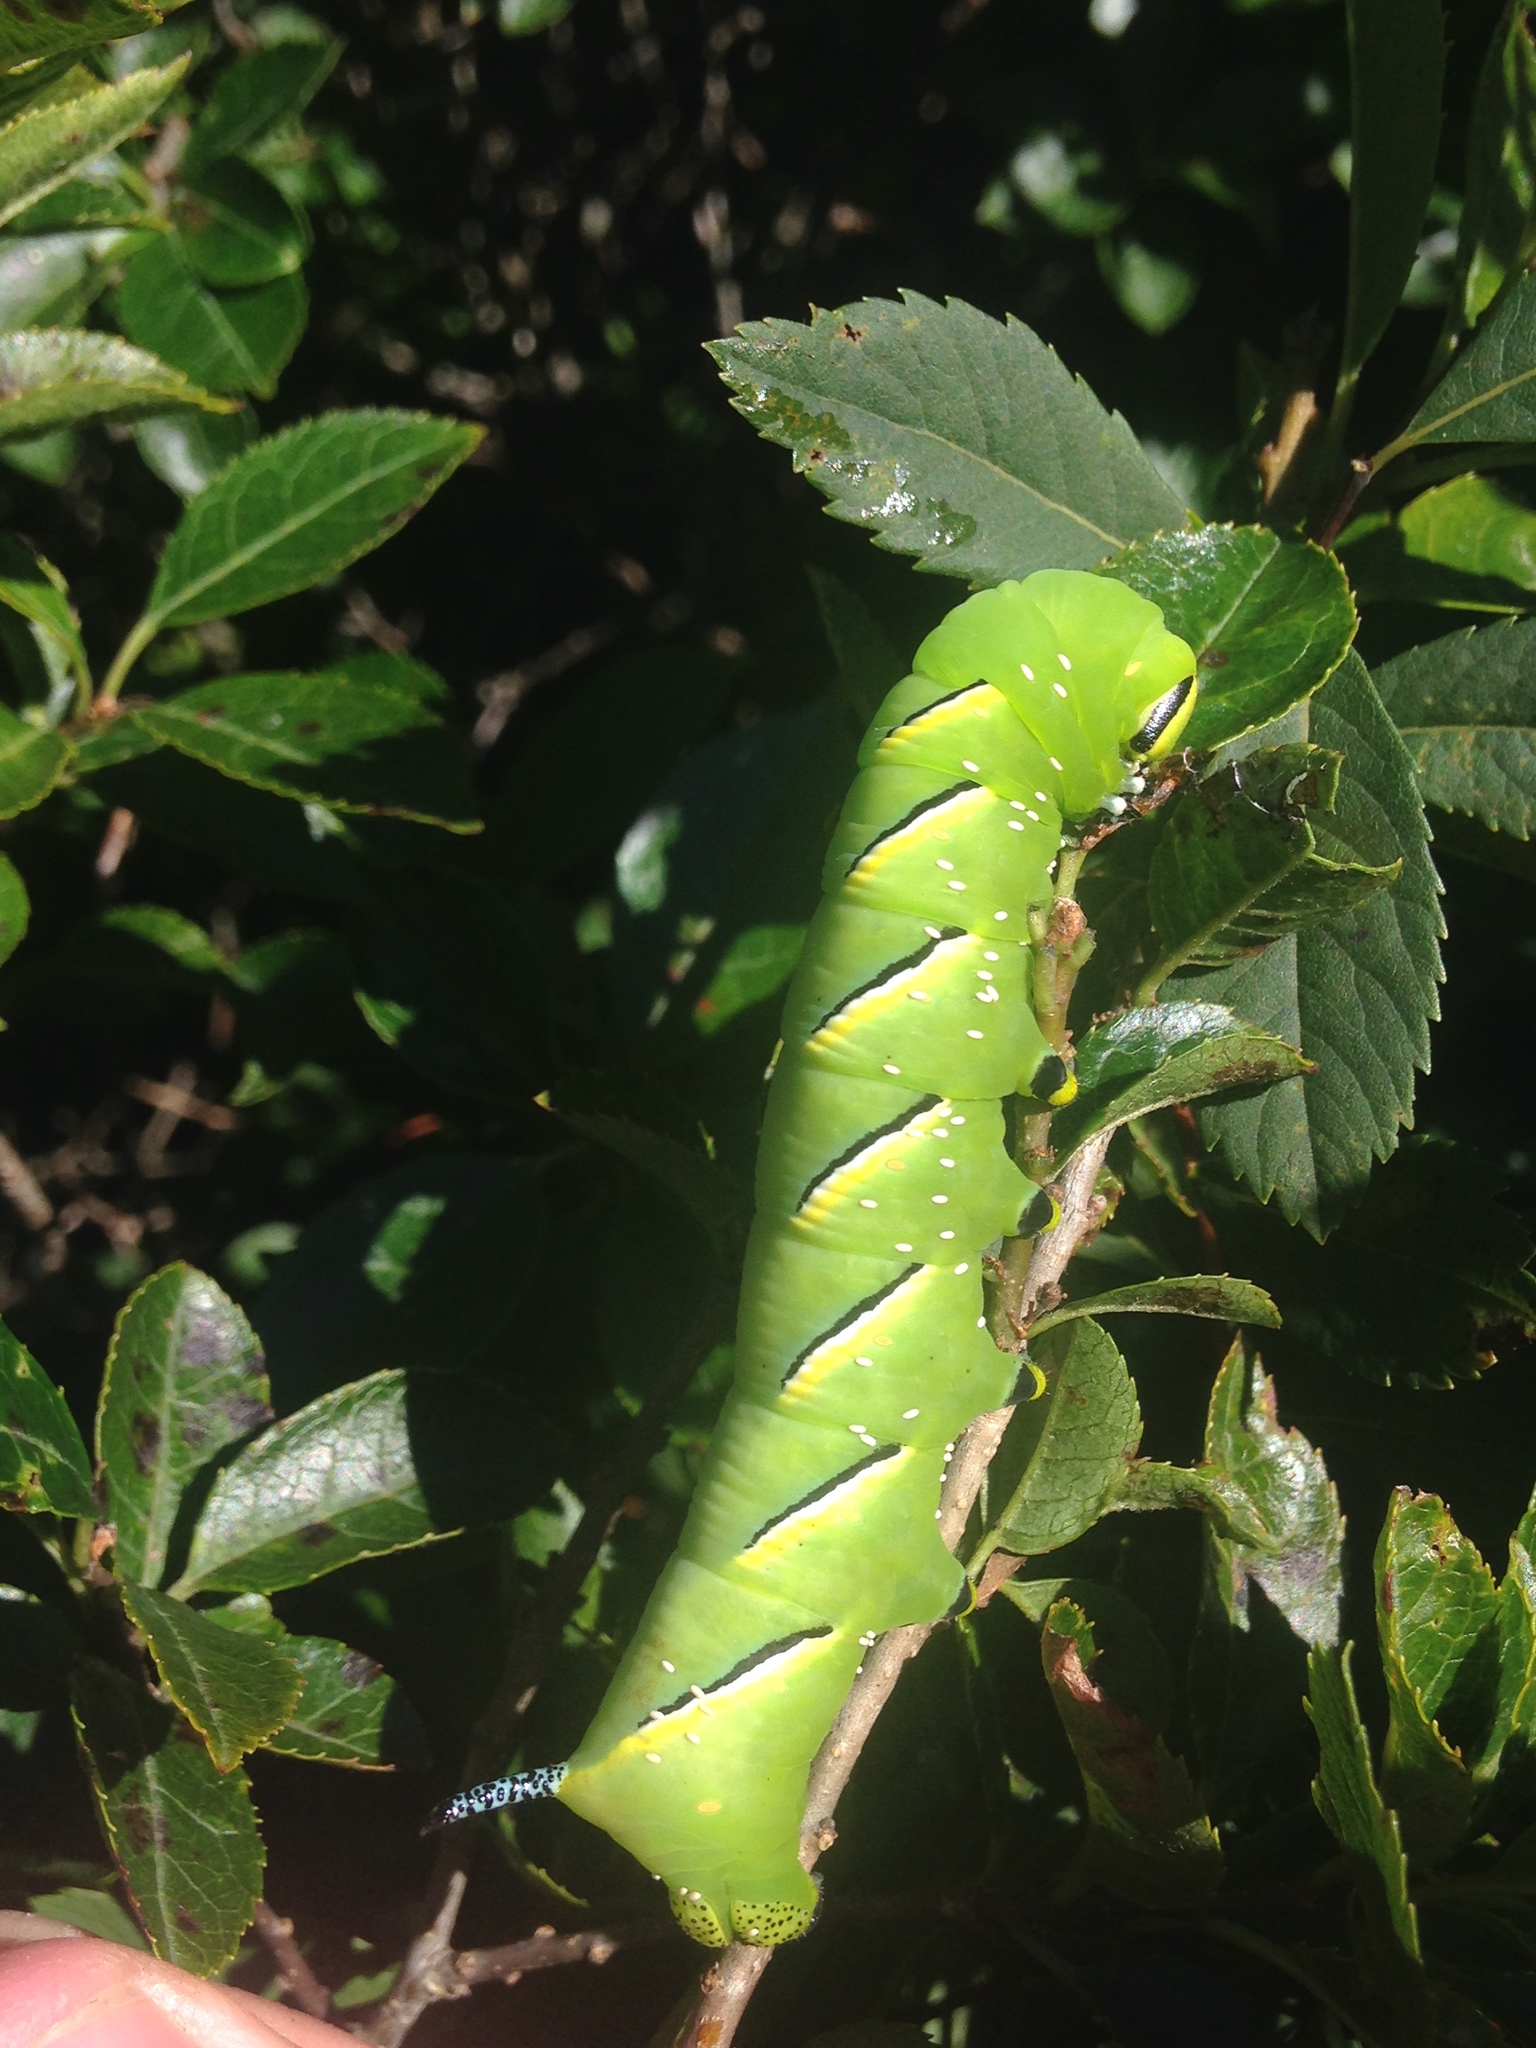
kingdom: Animalia
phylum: Arthropoda
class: Insecta
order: Lepidoptera
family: Sphingidae
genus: Sphinx
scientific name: Sphinx kalmiae
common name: Laurel sphinx
